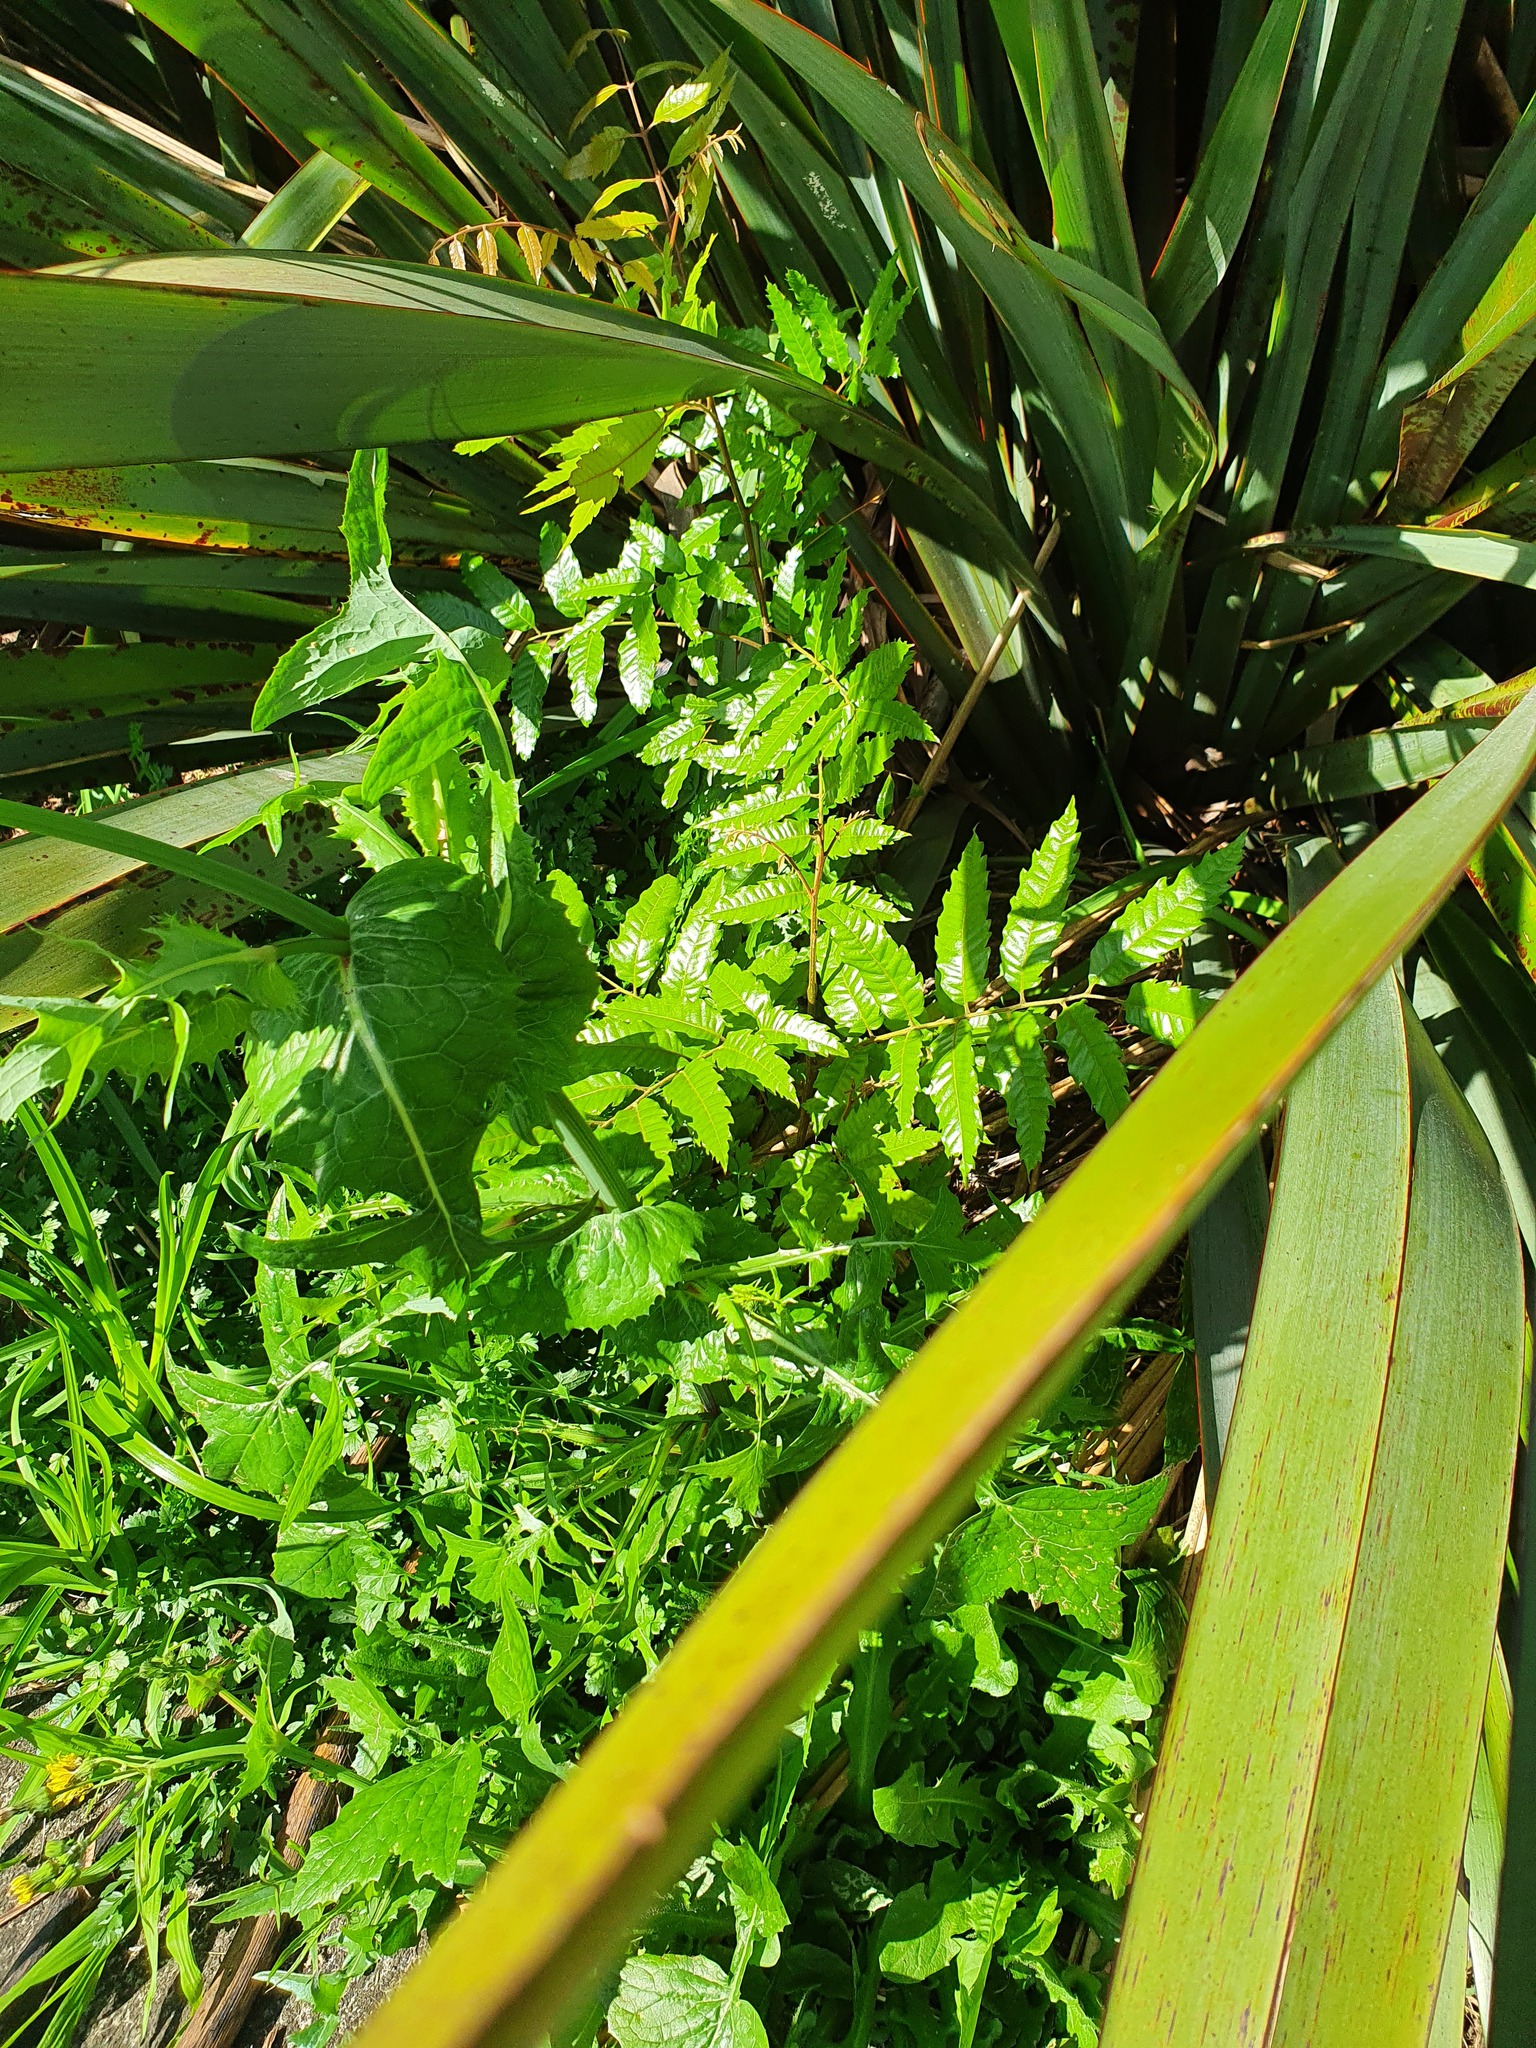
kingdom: Plantae
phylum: Tracheophyta
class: Magnoliopsida
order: Sapindales
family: Sapindaceae
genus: Alectryon
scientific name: Alectryon excelsus
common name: Three kings titoki
